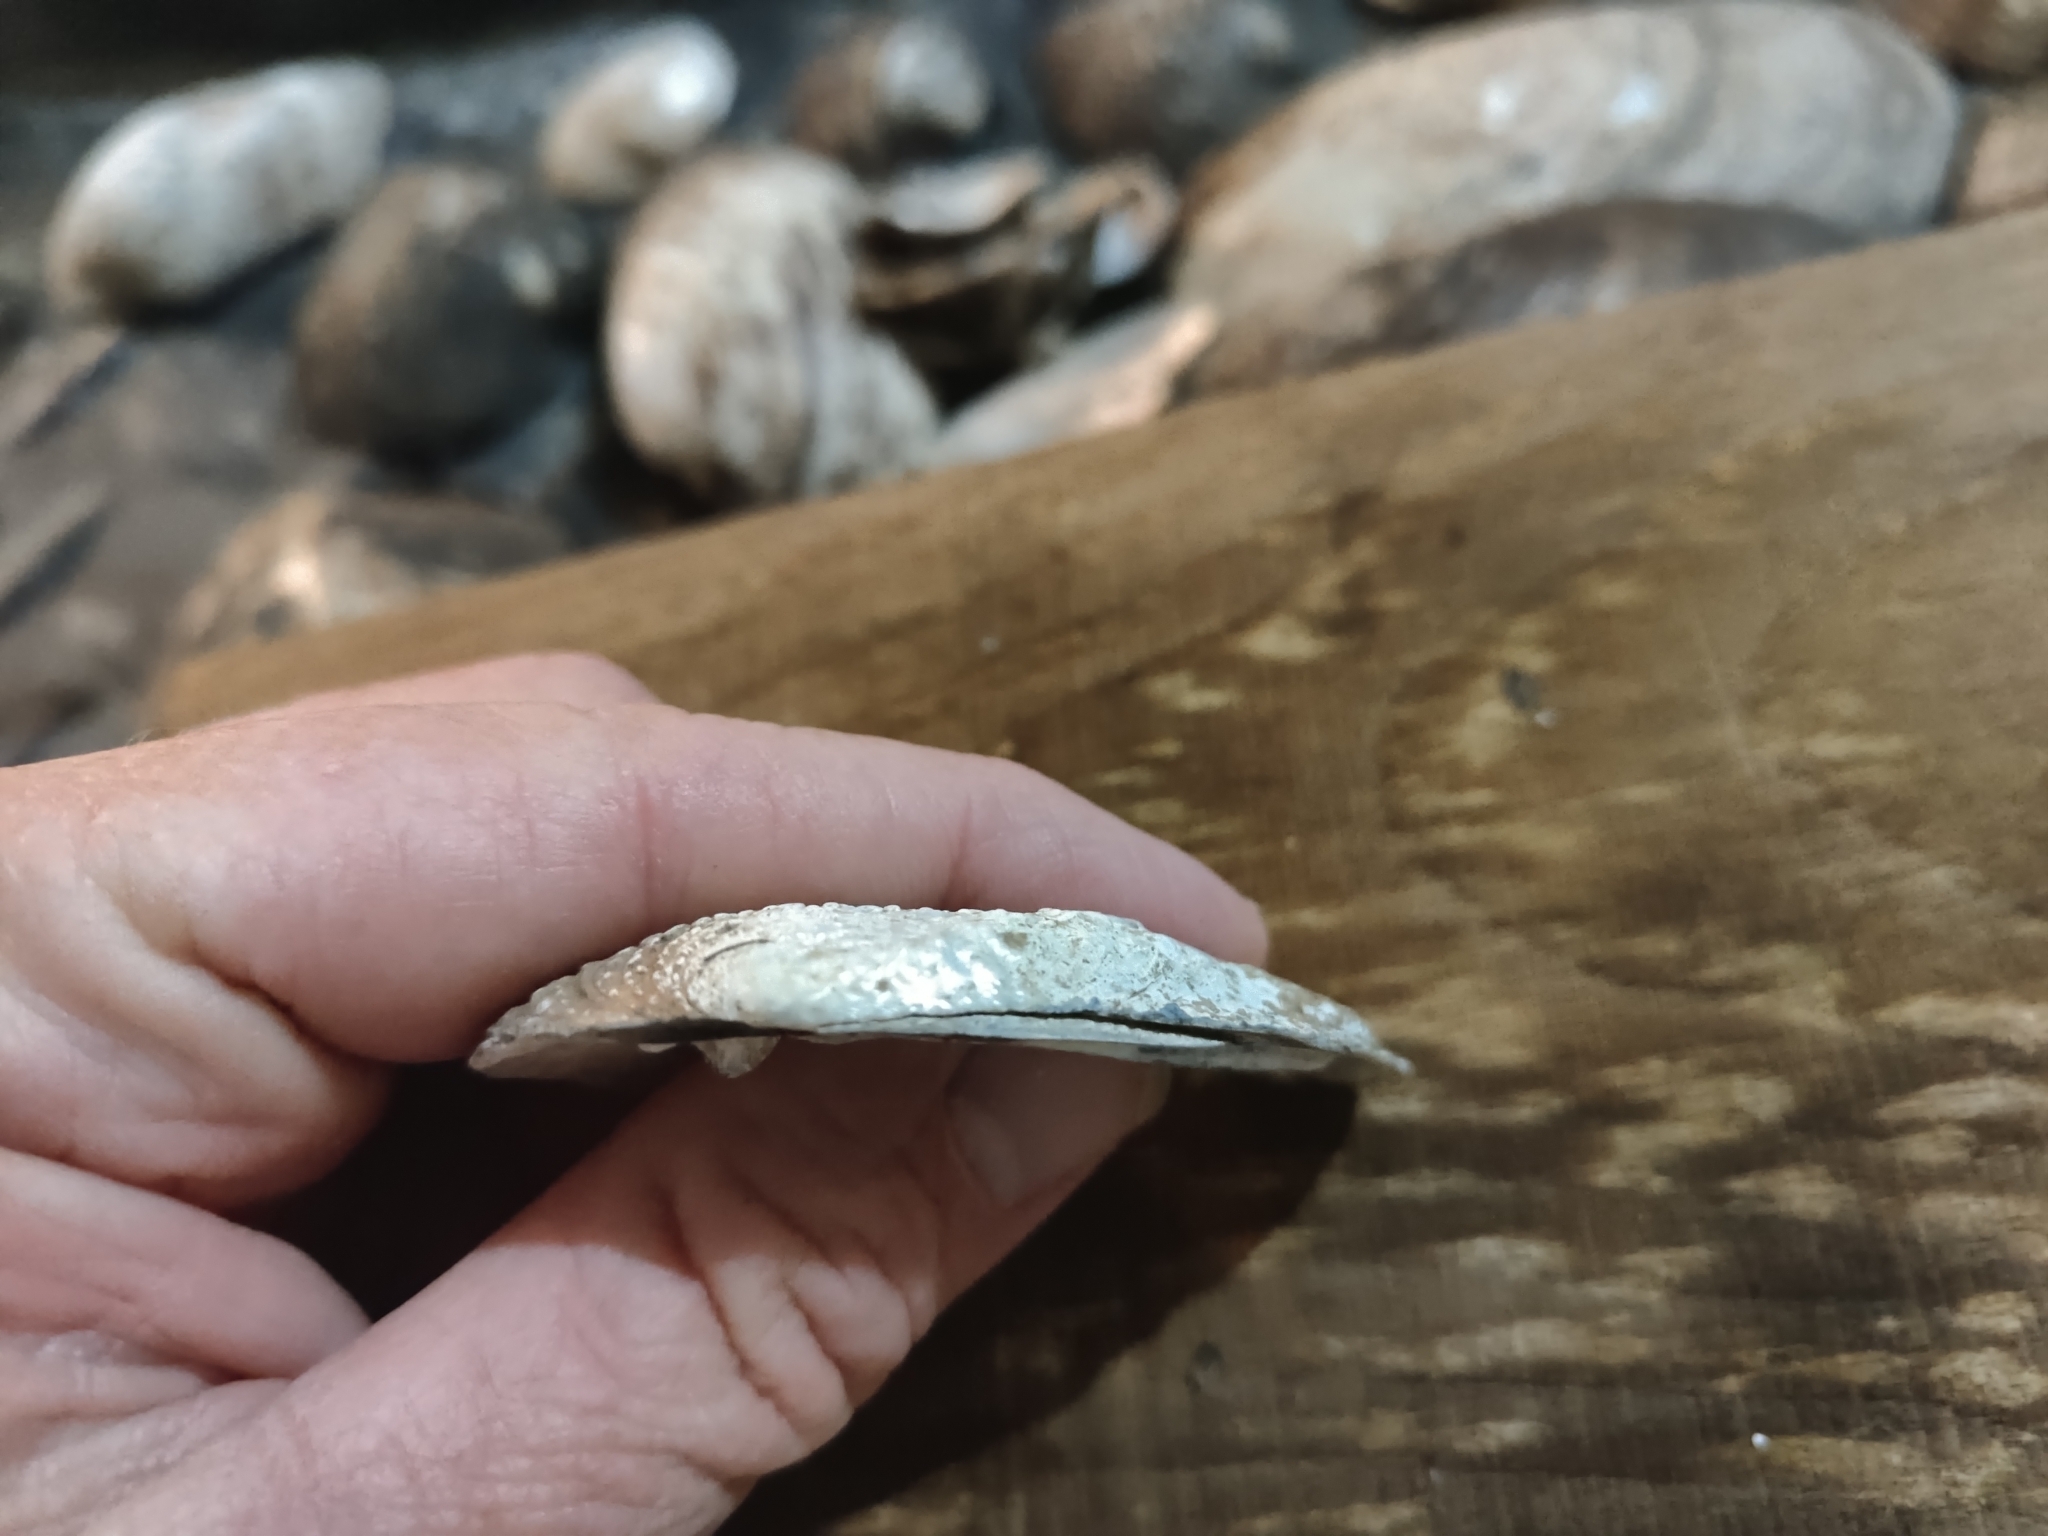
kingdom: Animalia
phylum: Mollusca
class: Bivalvia
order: Unionida
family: Unionidae
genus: Tritogonia
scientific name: Tritogonia verrucosa
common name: Pistolgrip
